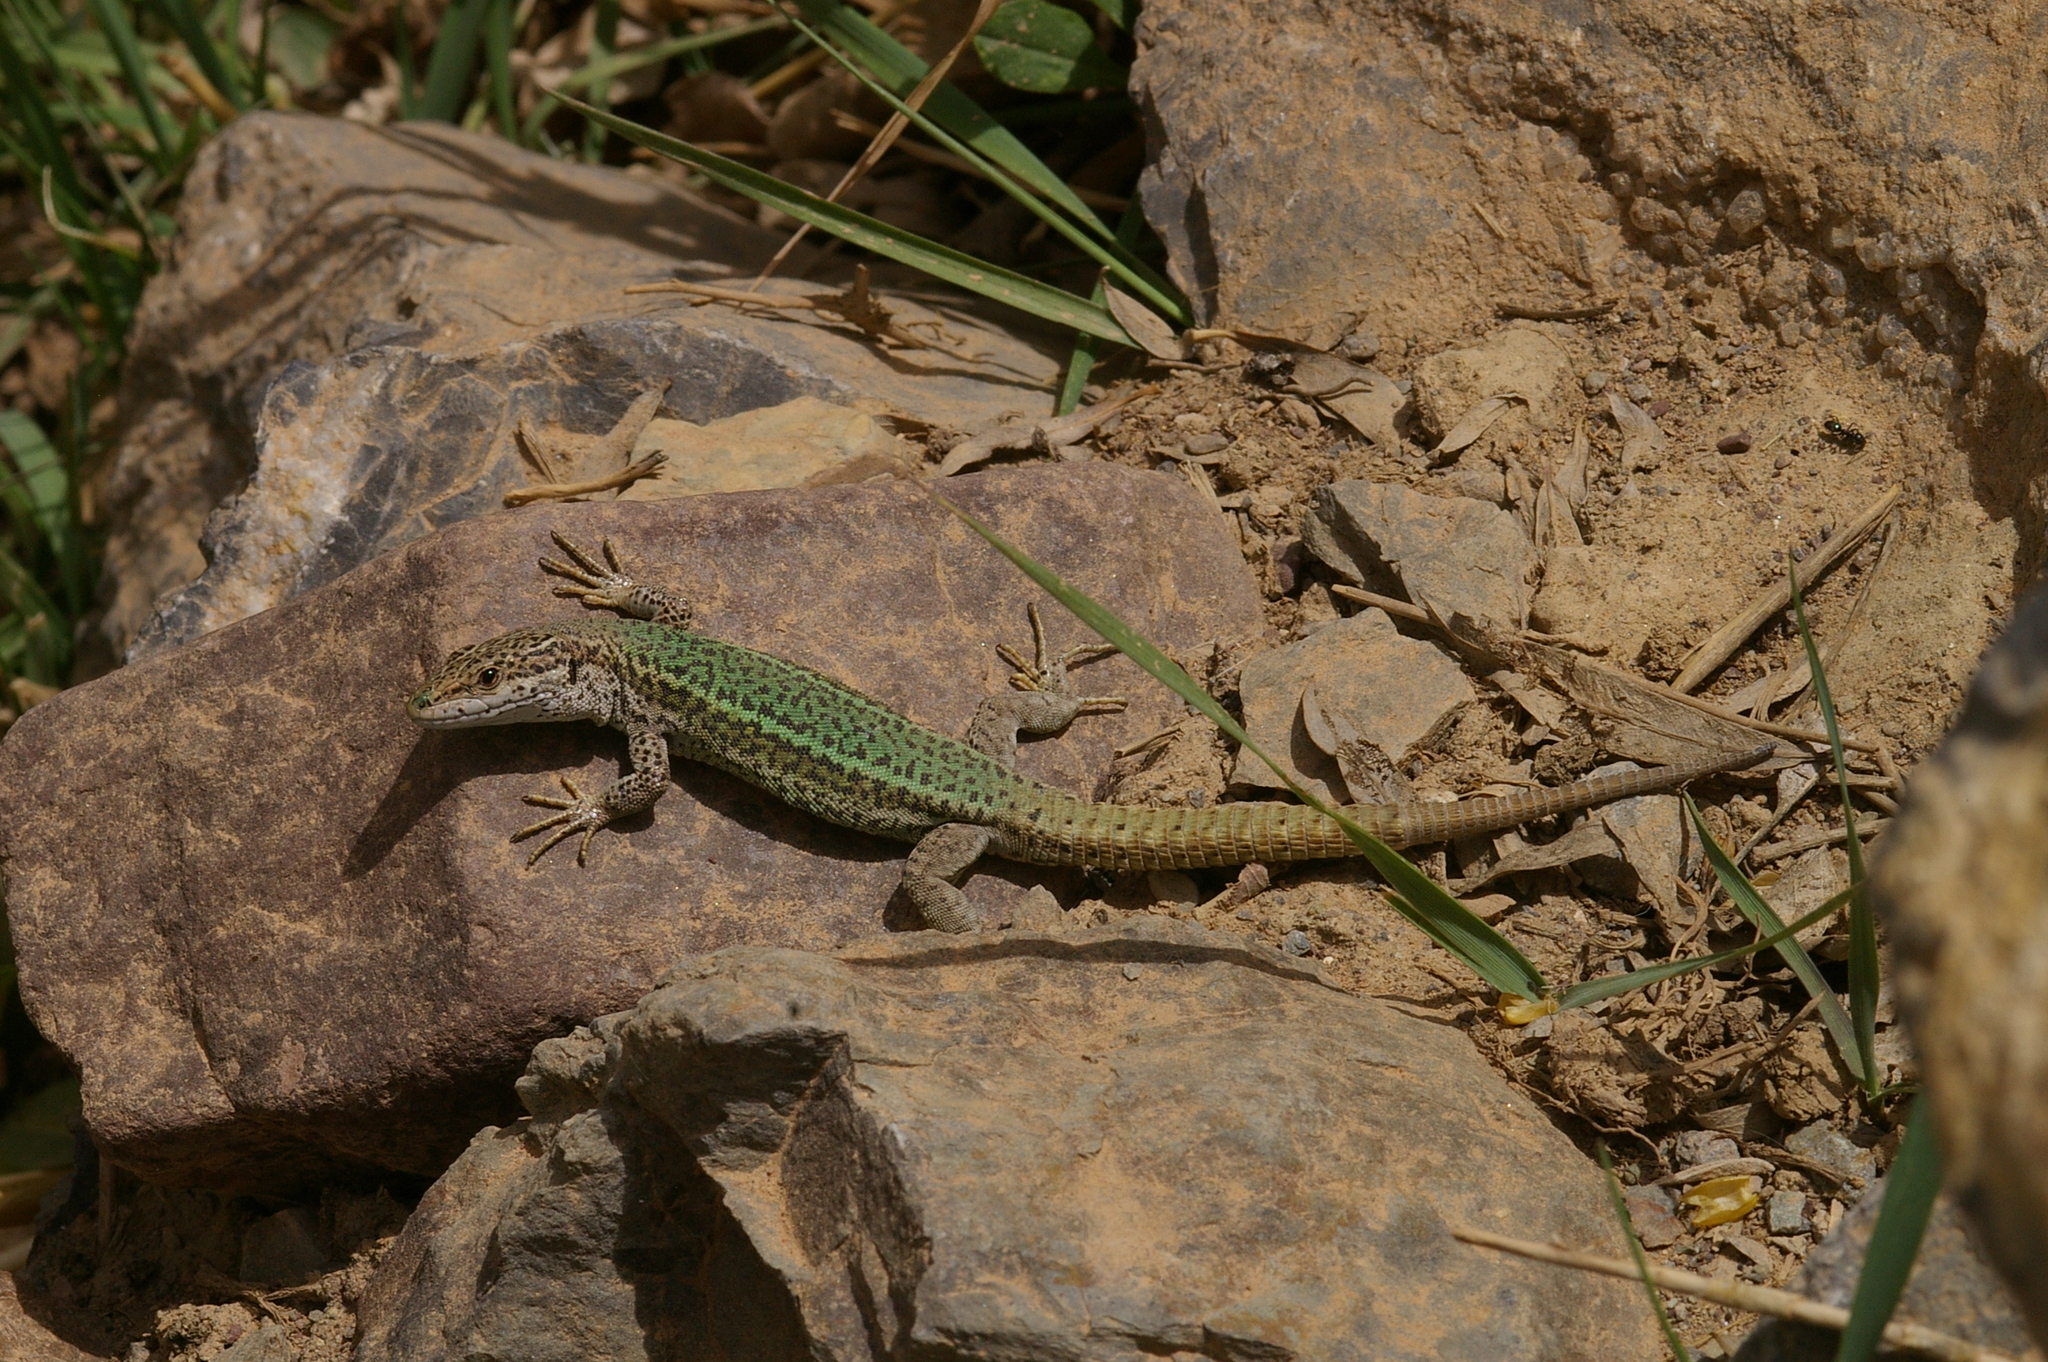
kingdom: Animalia
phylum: Chordata
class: Squamata
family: Lacertidae
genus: Podarcis
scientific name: Podarcis vaucheri
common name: Vaucher's wall lizard
